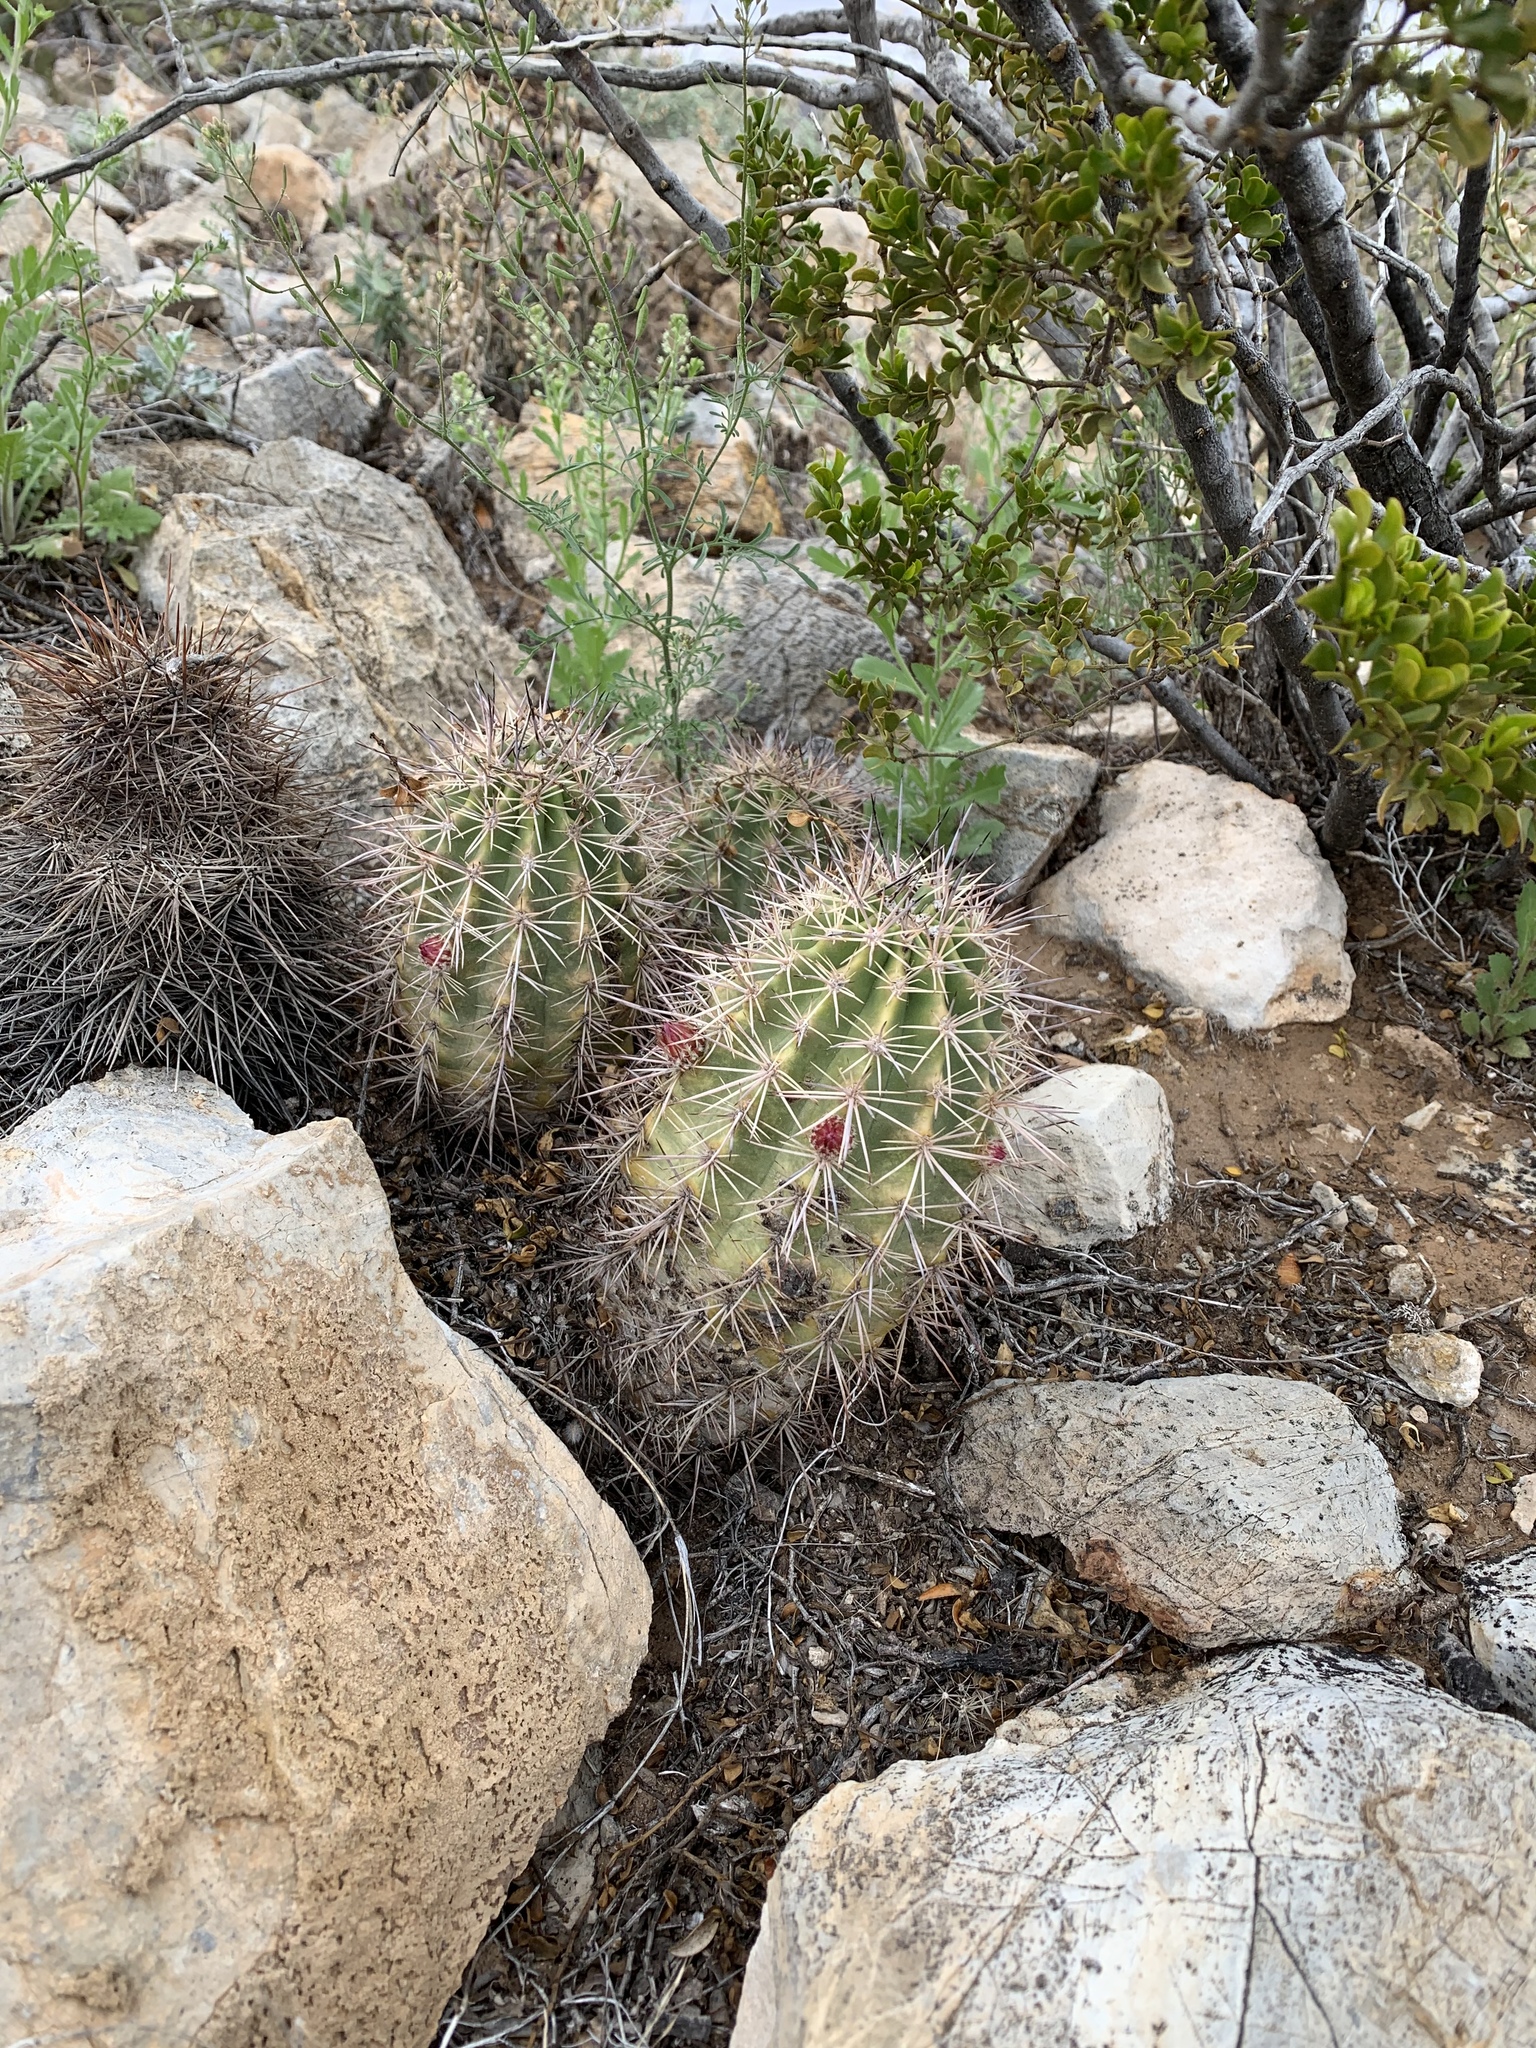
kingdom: Plantae
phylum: Tracheophyta
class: Magnoliopsida
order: Caryophyllales
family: Cactaceae
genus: Echinocereus
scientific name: Echinocereus coccineus
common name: Scarlet hedgehog cactus
